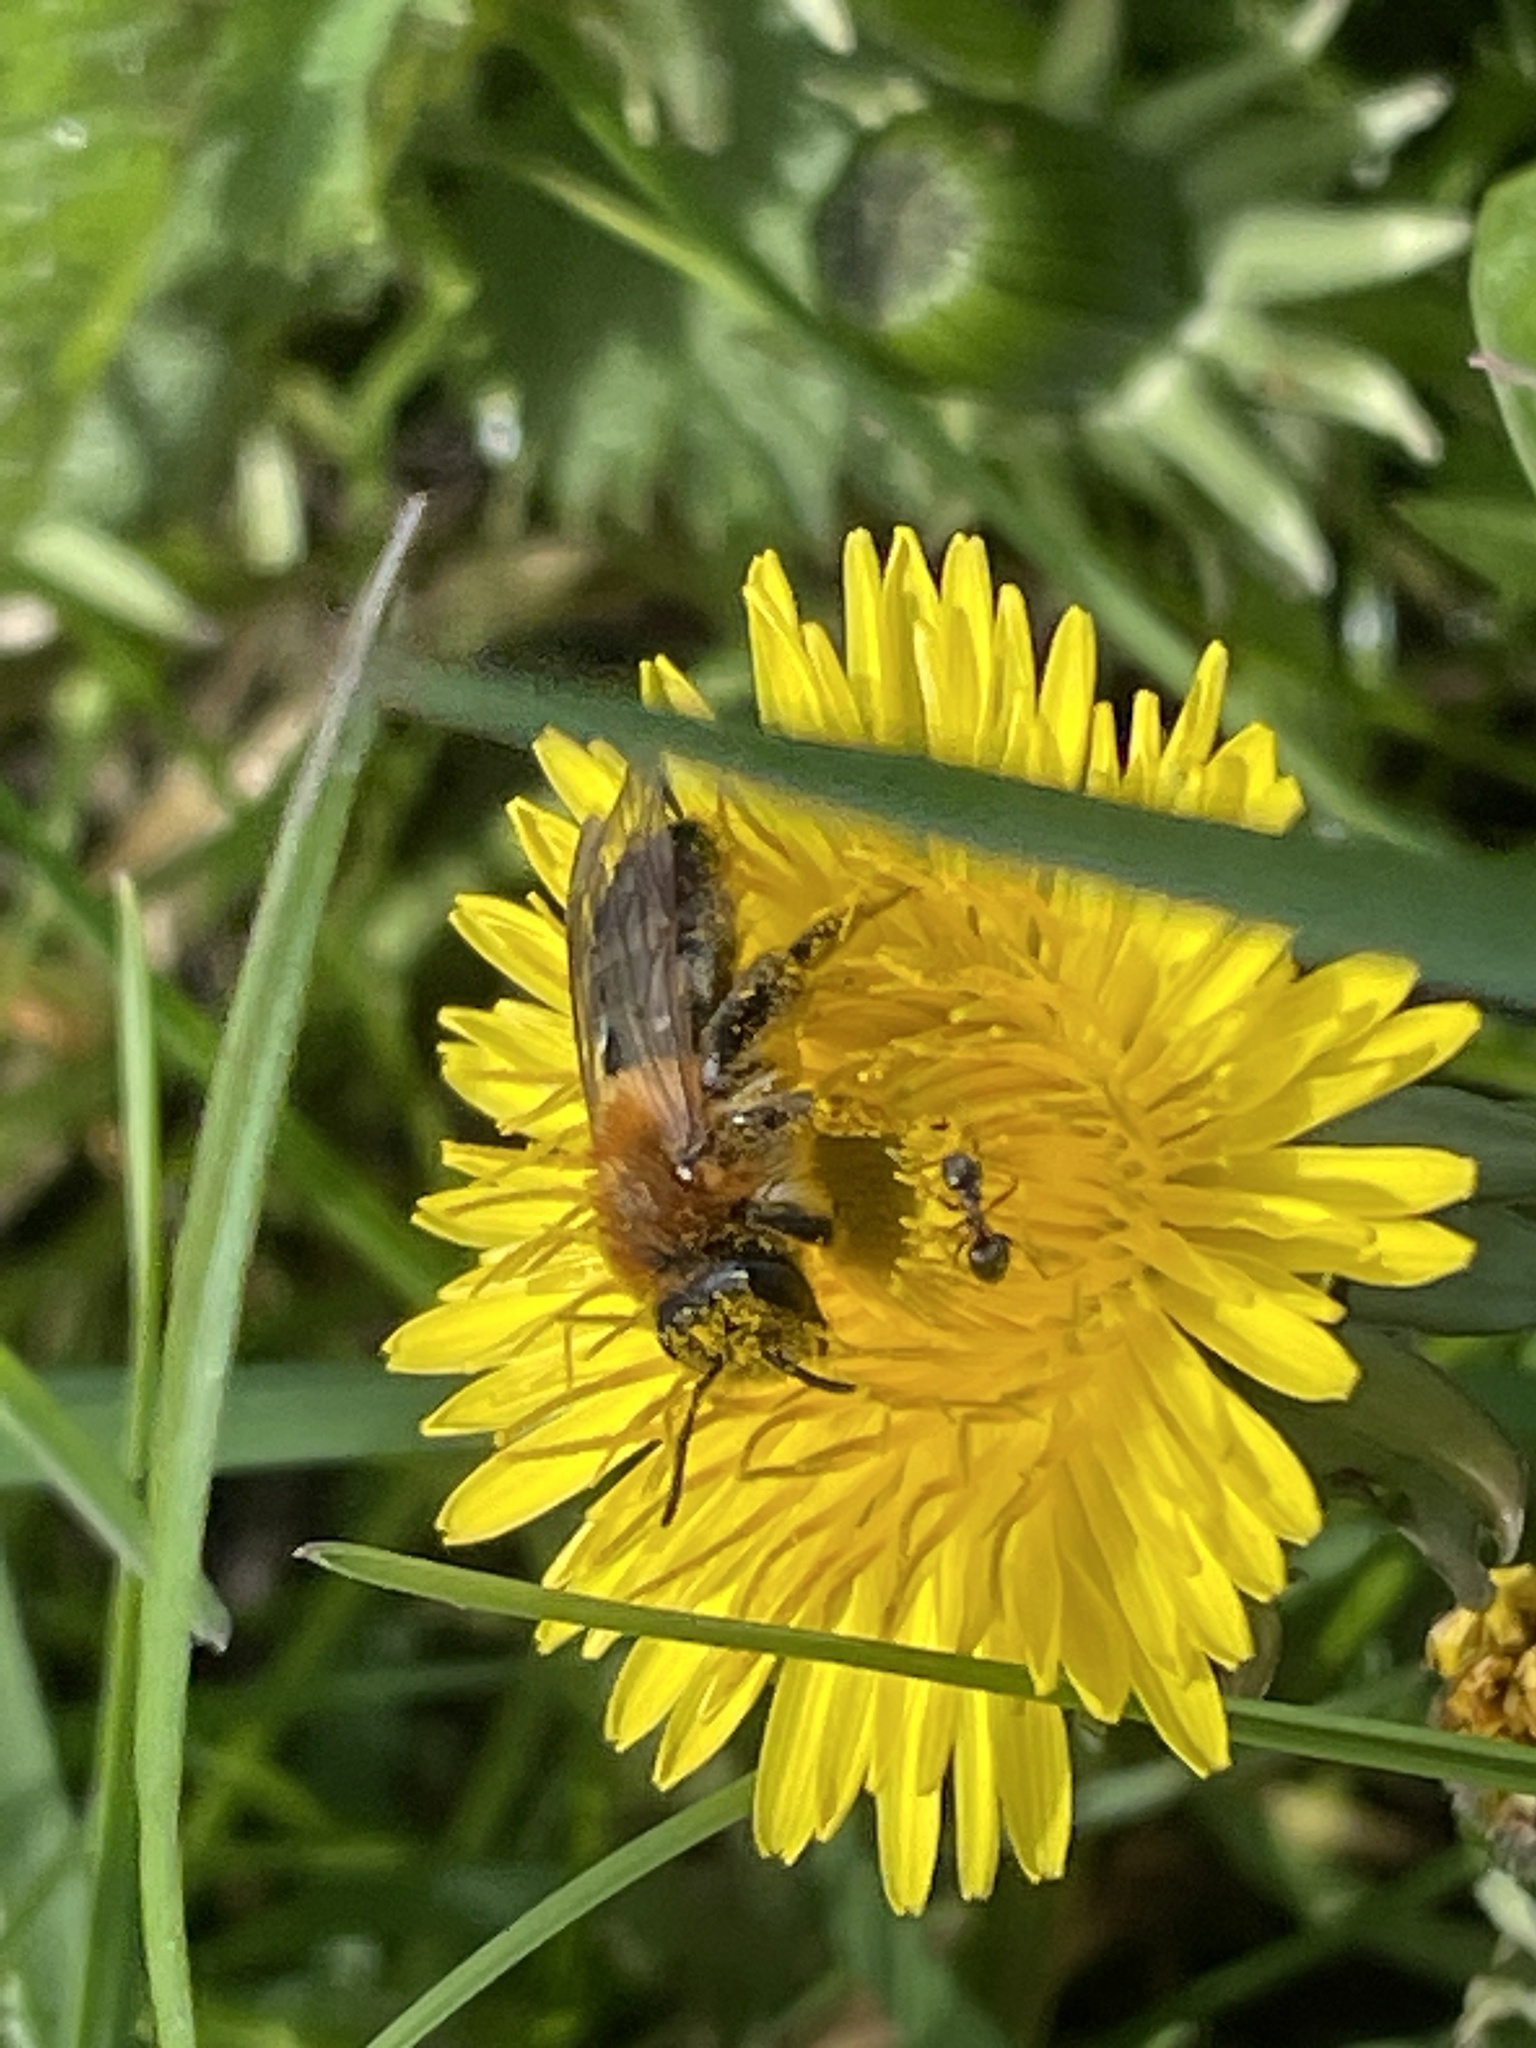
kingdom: Animalia
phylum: Arthropoda
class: Insecta
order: Hymenoptera
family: Andrenidae
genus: Andrena
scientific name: Andrena nitida
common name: Grey-patched mining bee
